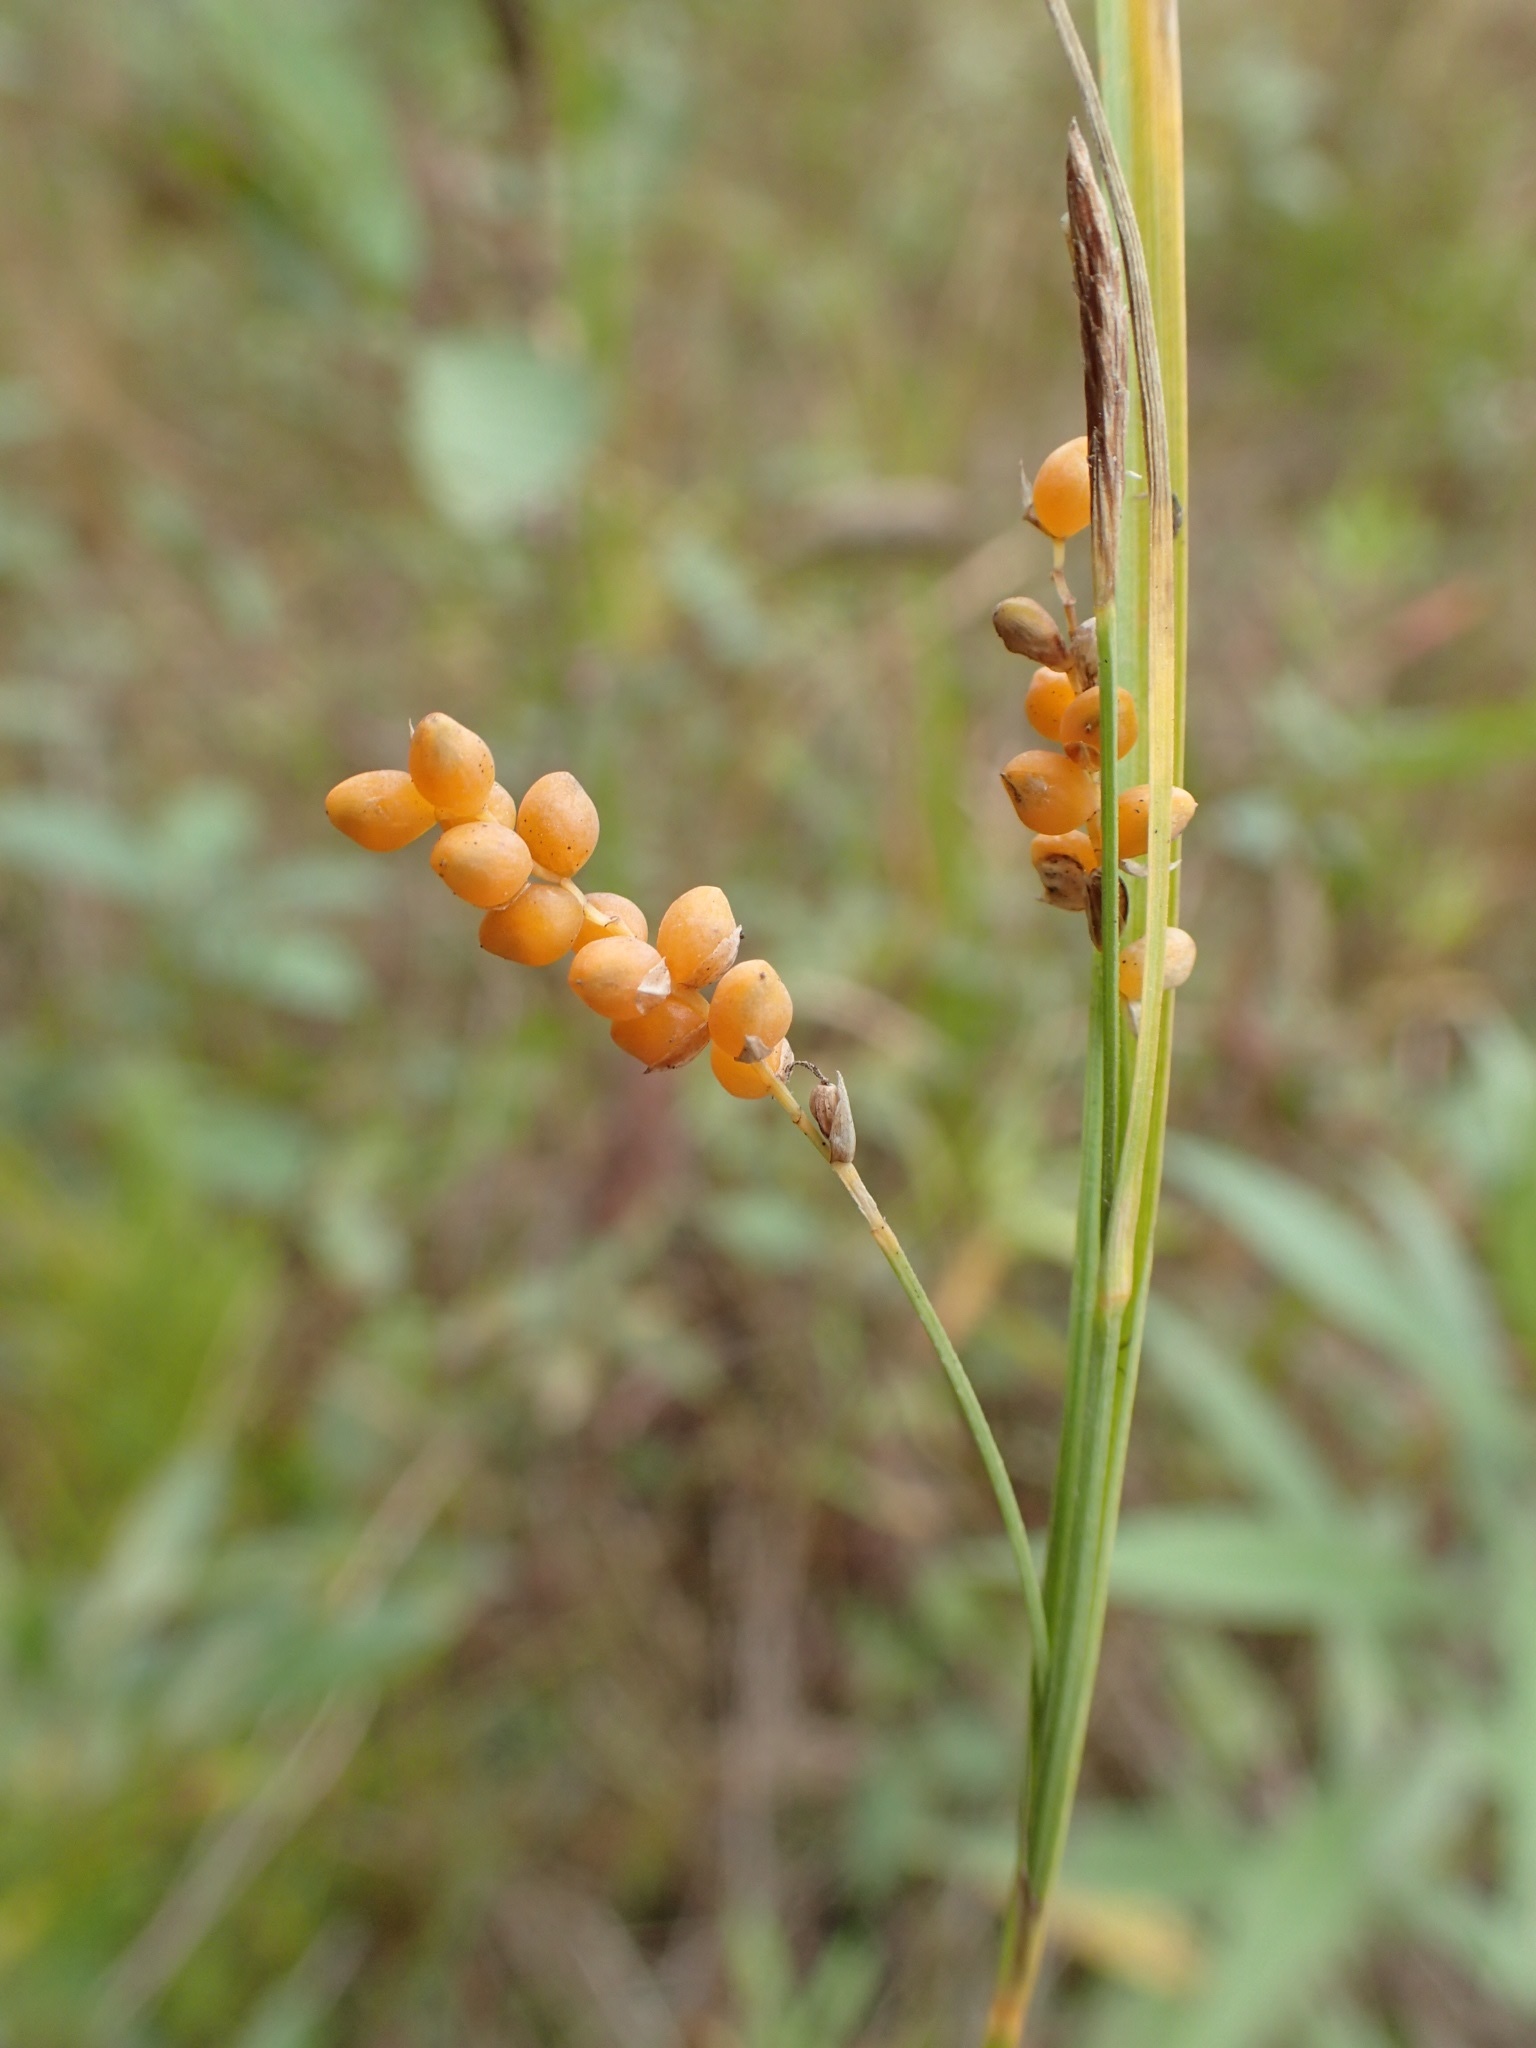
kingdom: Plantae
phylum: Tracheophyta
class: Liliopsida
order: Poales
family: Cyperaceae
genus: Carex
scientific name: Carex aurea
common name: Golden sedge
